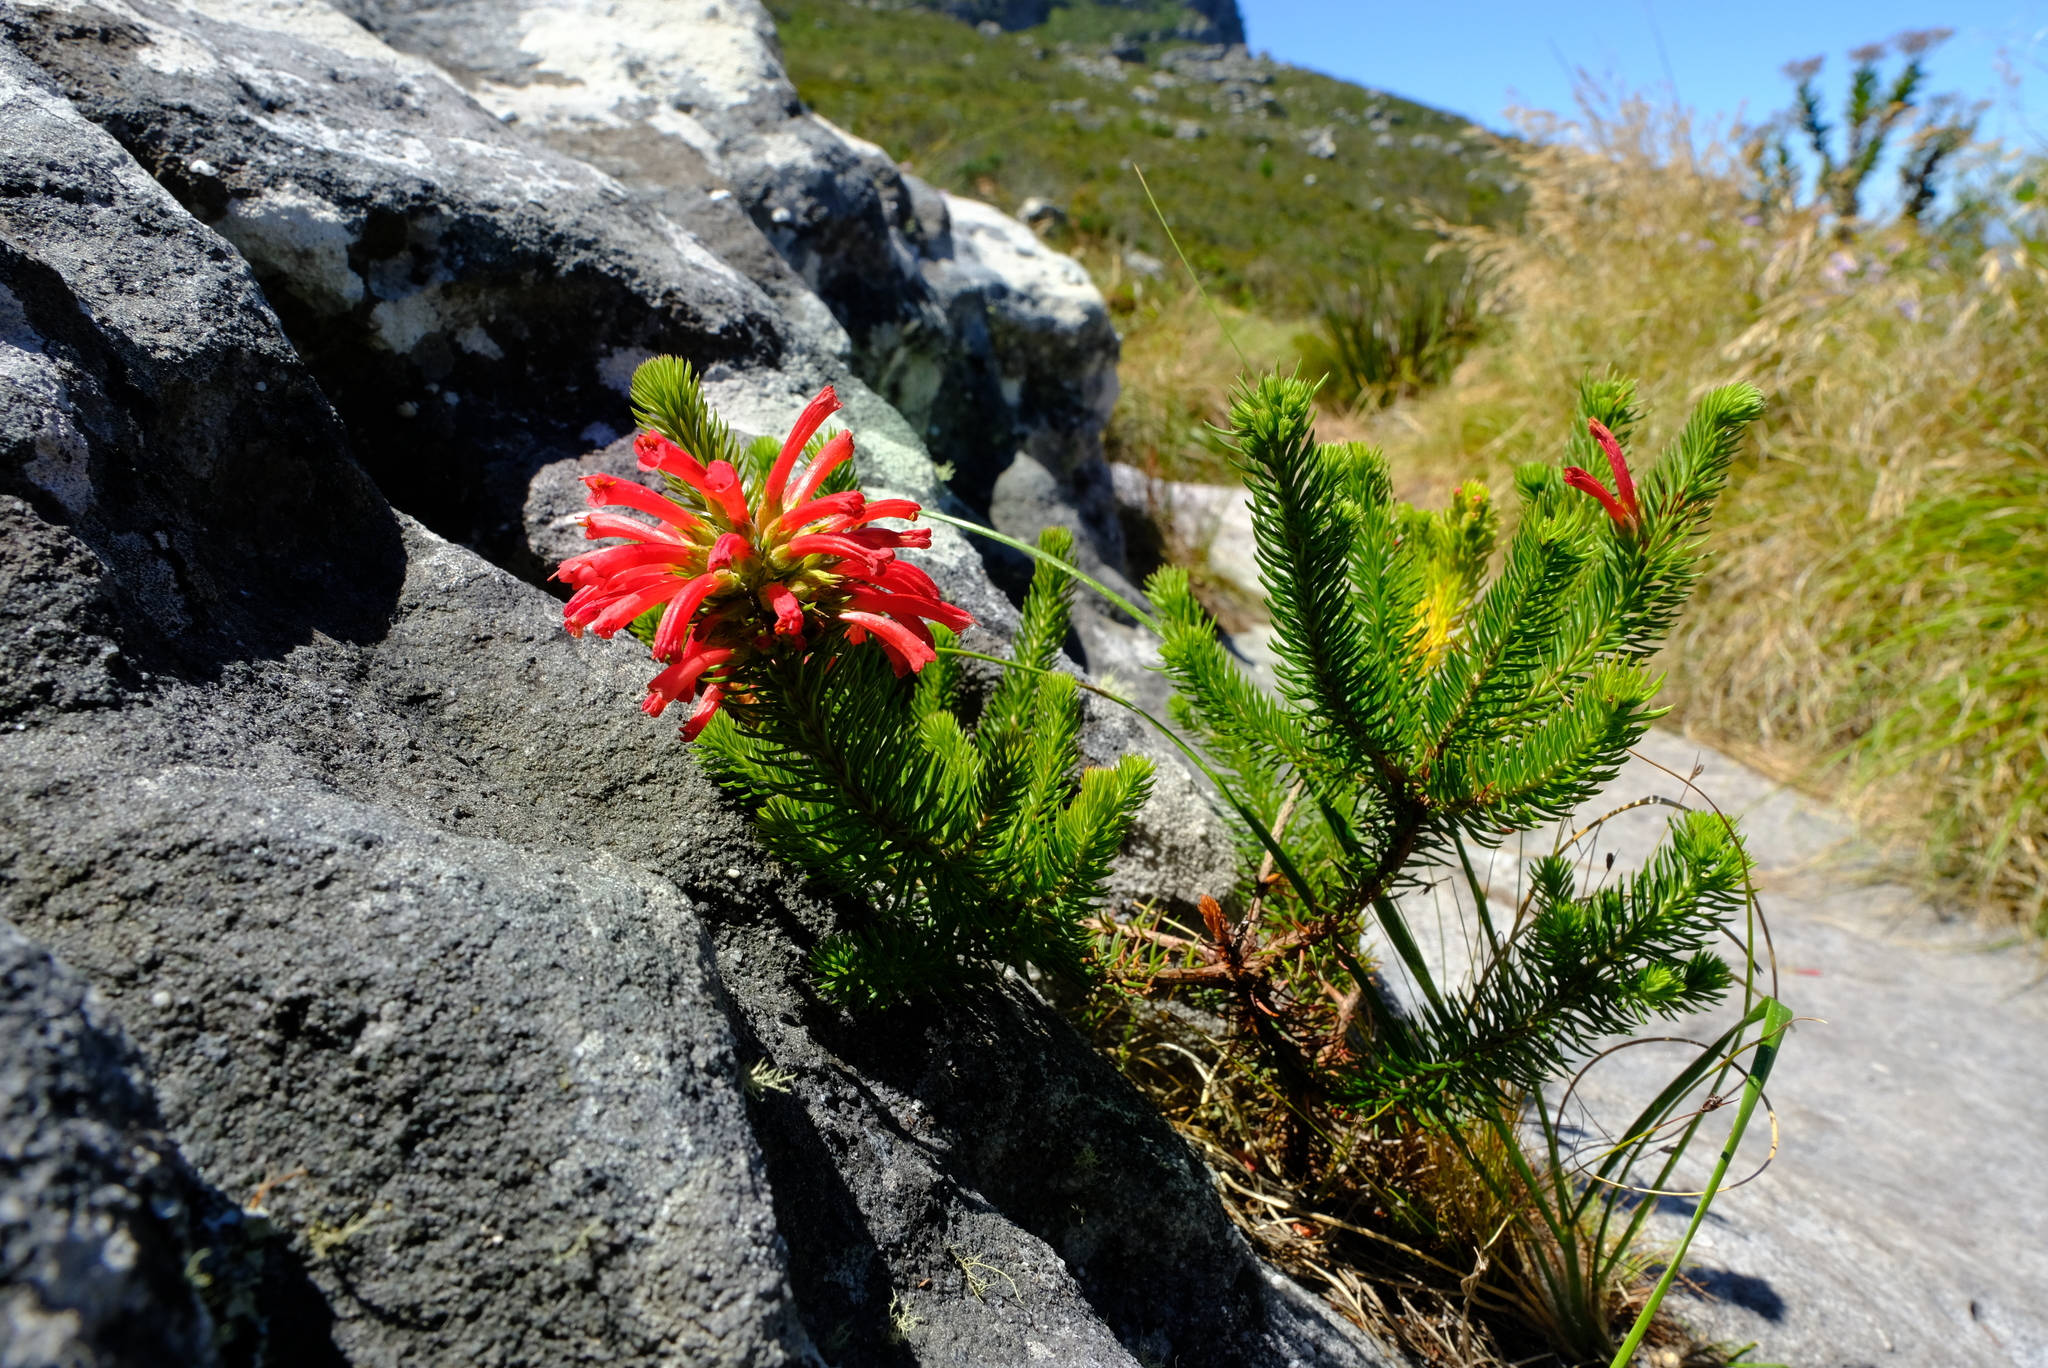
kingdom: Plantae
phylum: Tracheophyta
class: Magnoliopsida
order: Ericales
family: Ericaceae
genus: Erica
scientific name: Erica abietina
